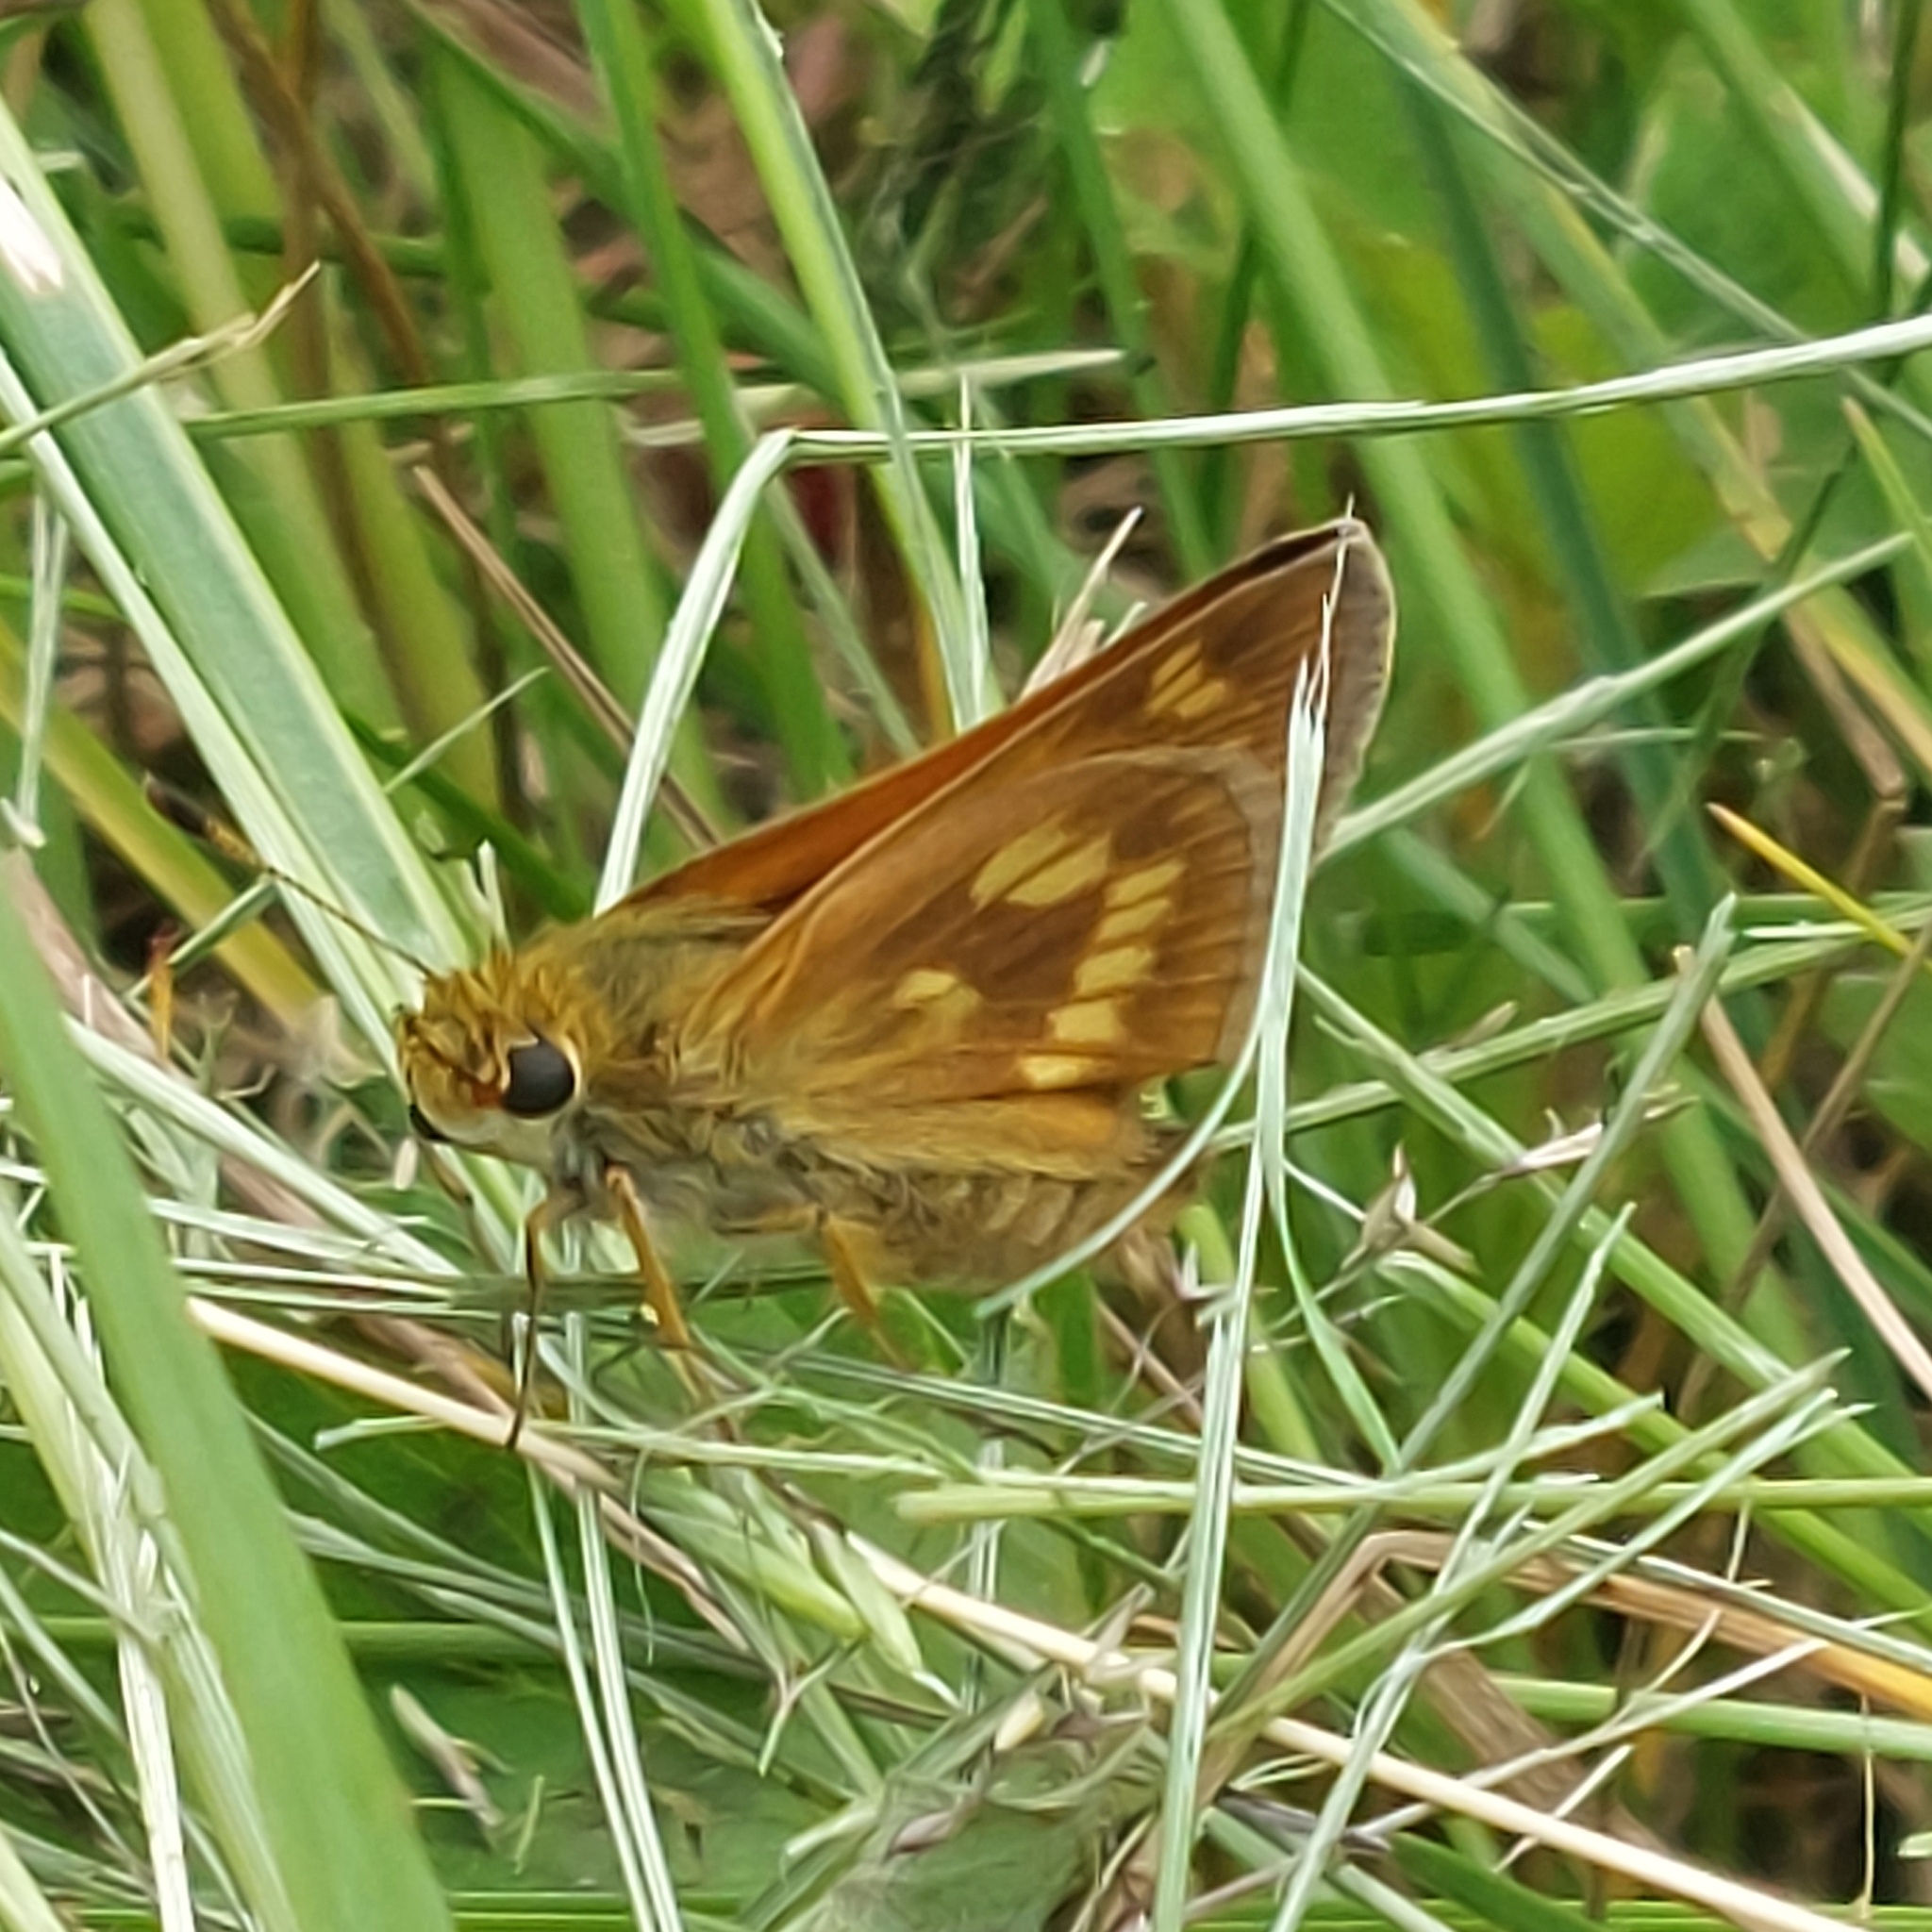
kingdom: Animalia
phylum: Arthropoda
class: Insecta
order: Lepidoptera
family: Hesperiidae
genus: Polites
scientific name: Polites mystic
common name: Long dash
